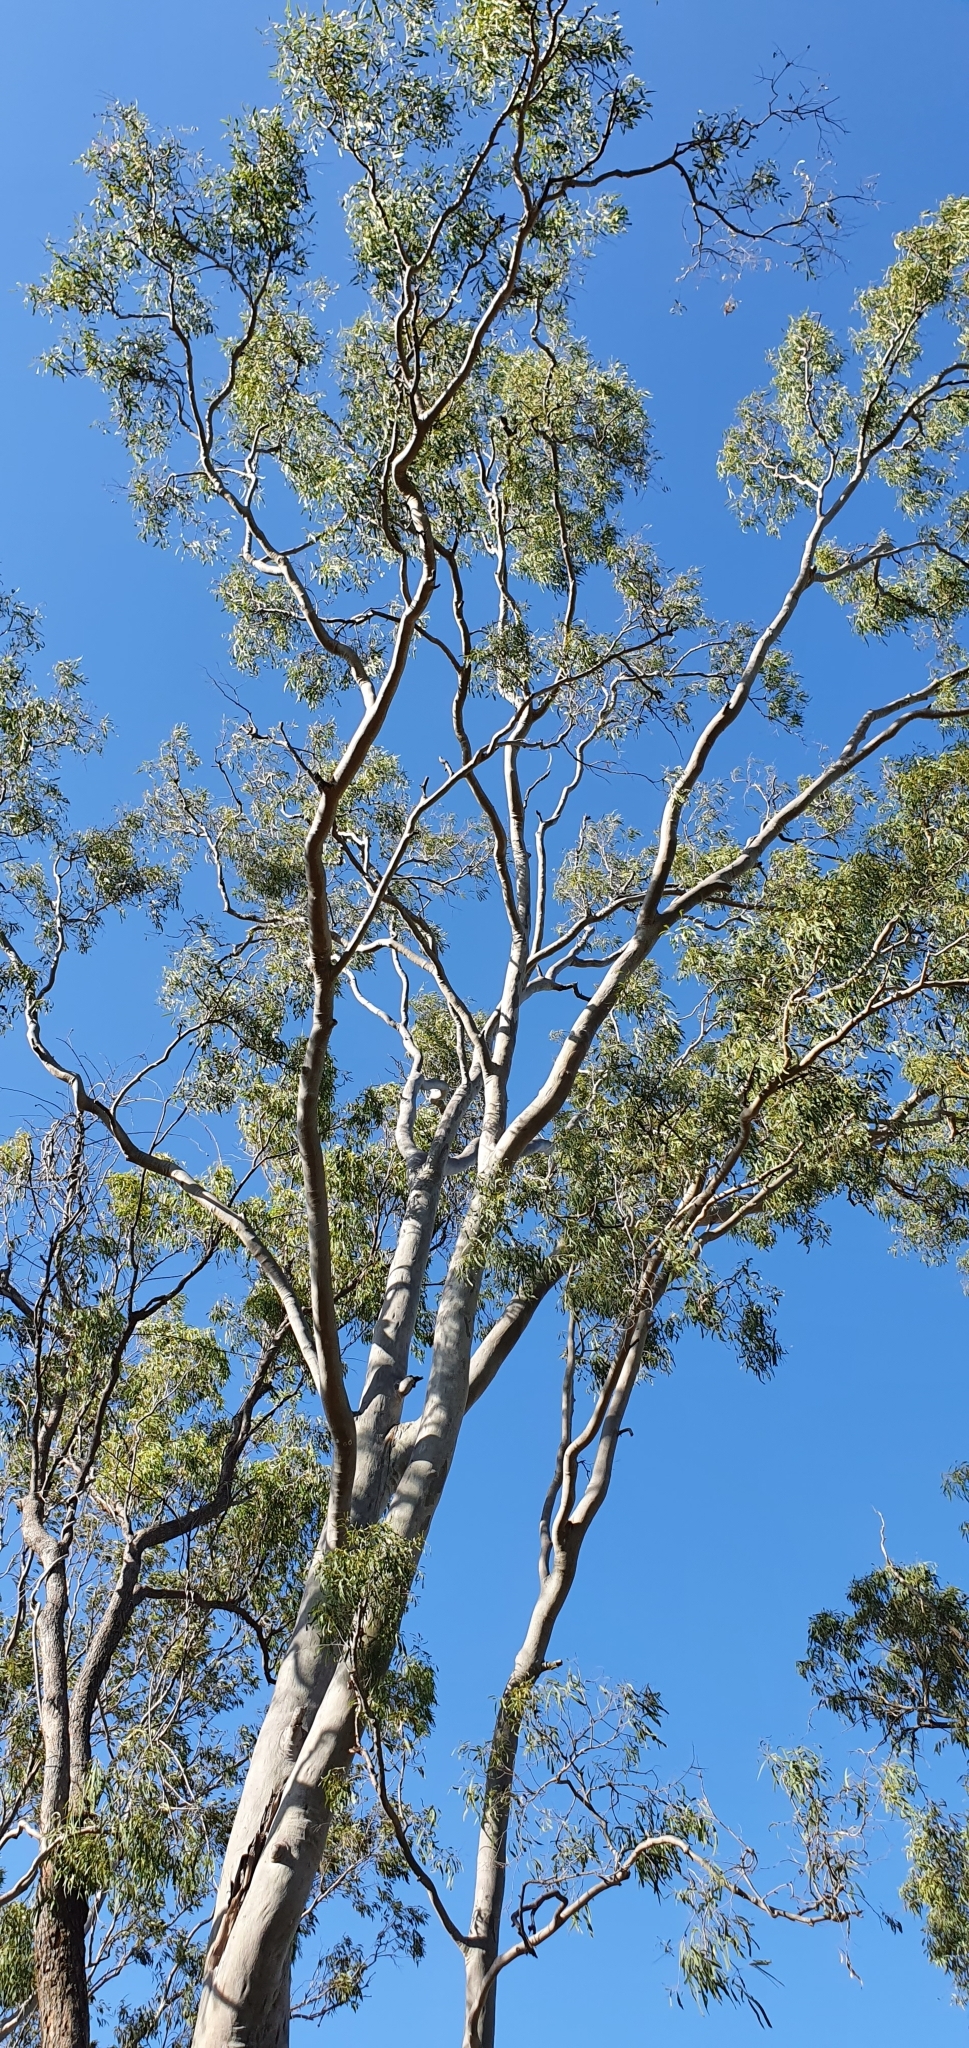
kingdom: Plantae
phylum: Tracheophyta
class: Magnoliopsida
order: Myrtales
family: Myrtaceae
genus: Corymbia
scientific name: Corymbia tessellaris
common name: Carbeen
